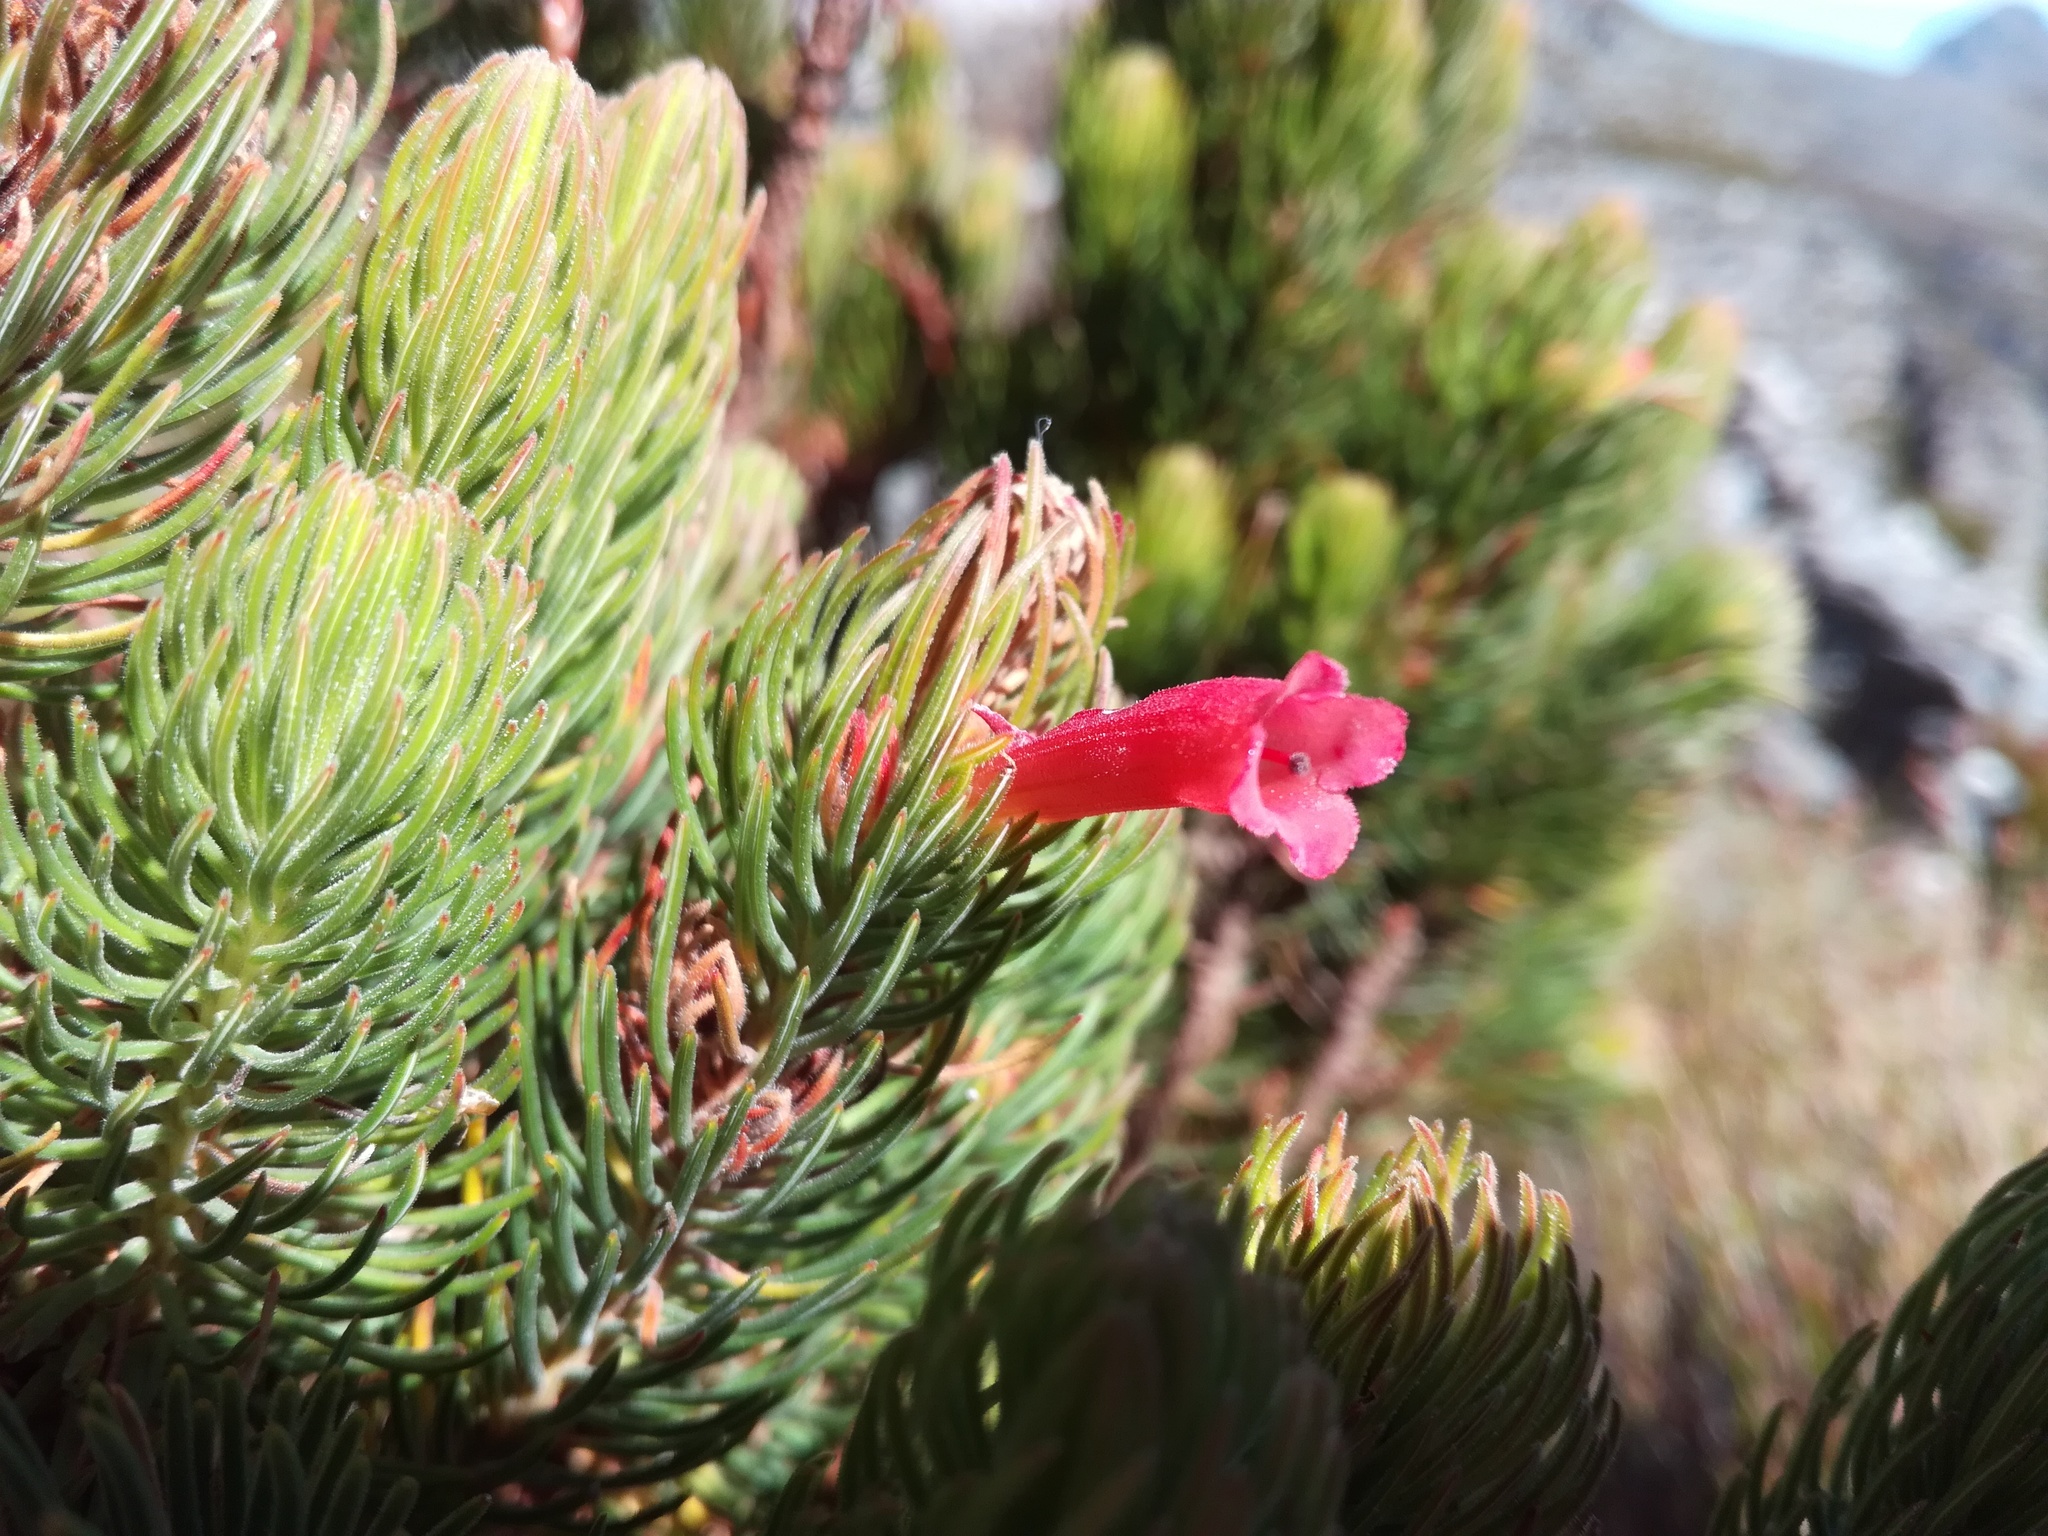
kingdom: Plantae
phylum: Tracheophyta
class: Magnoliopsida
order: Ericales
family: Ericaceae
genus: Erica
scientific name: Erica viscaria
